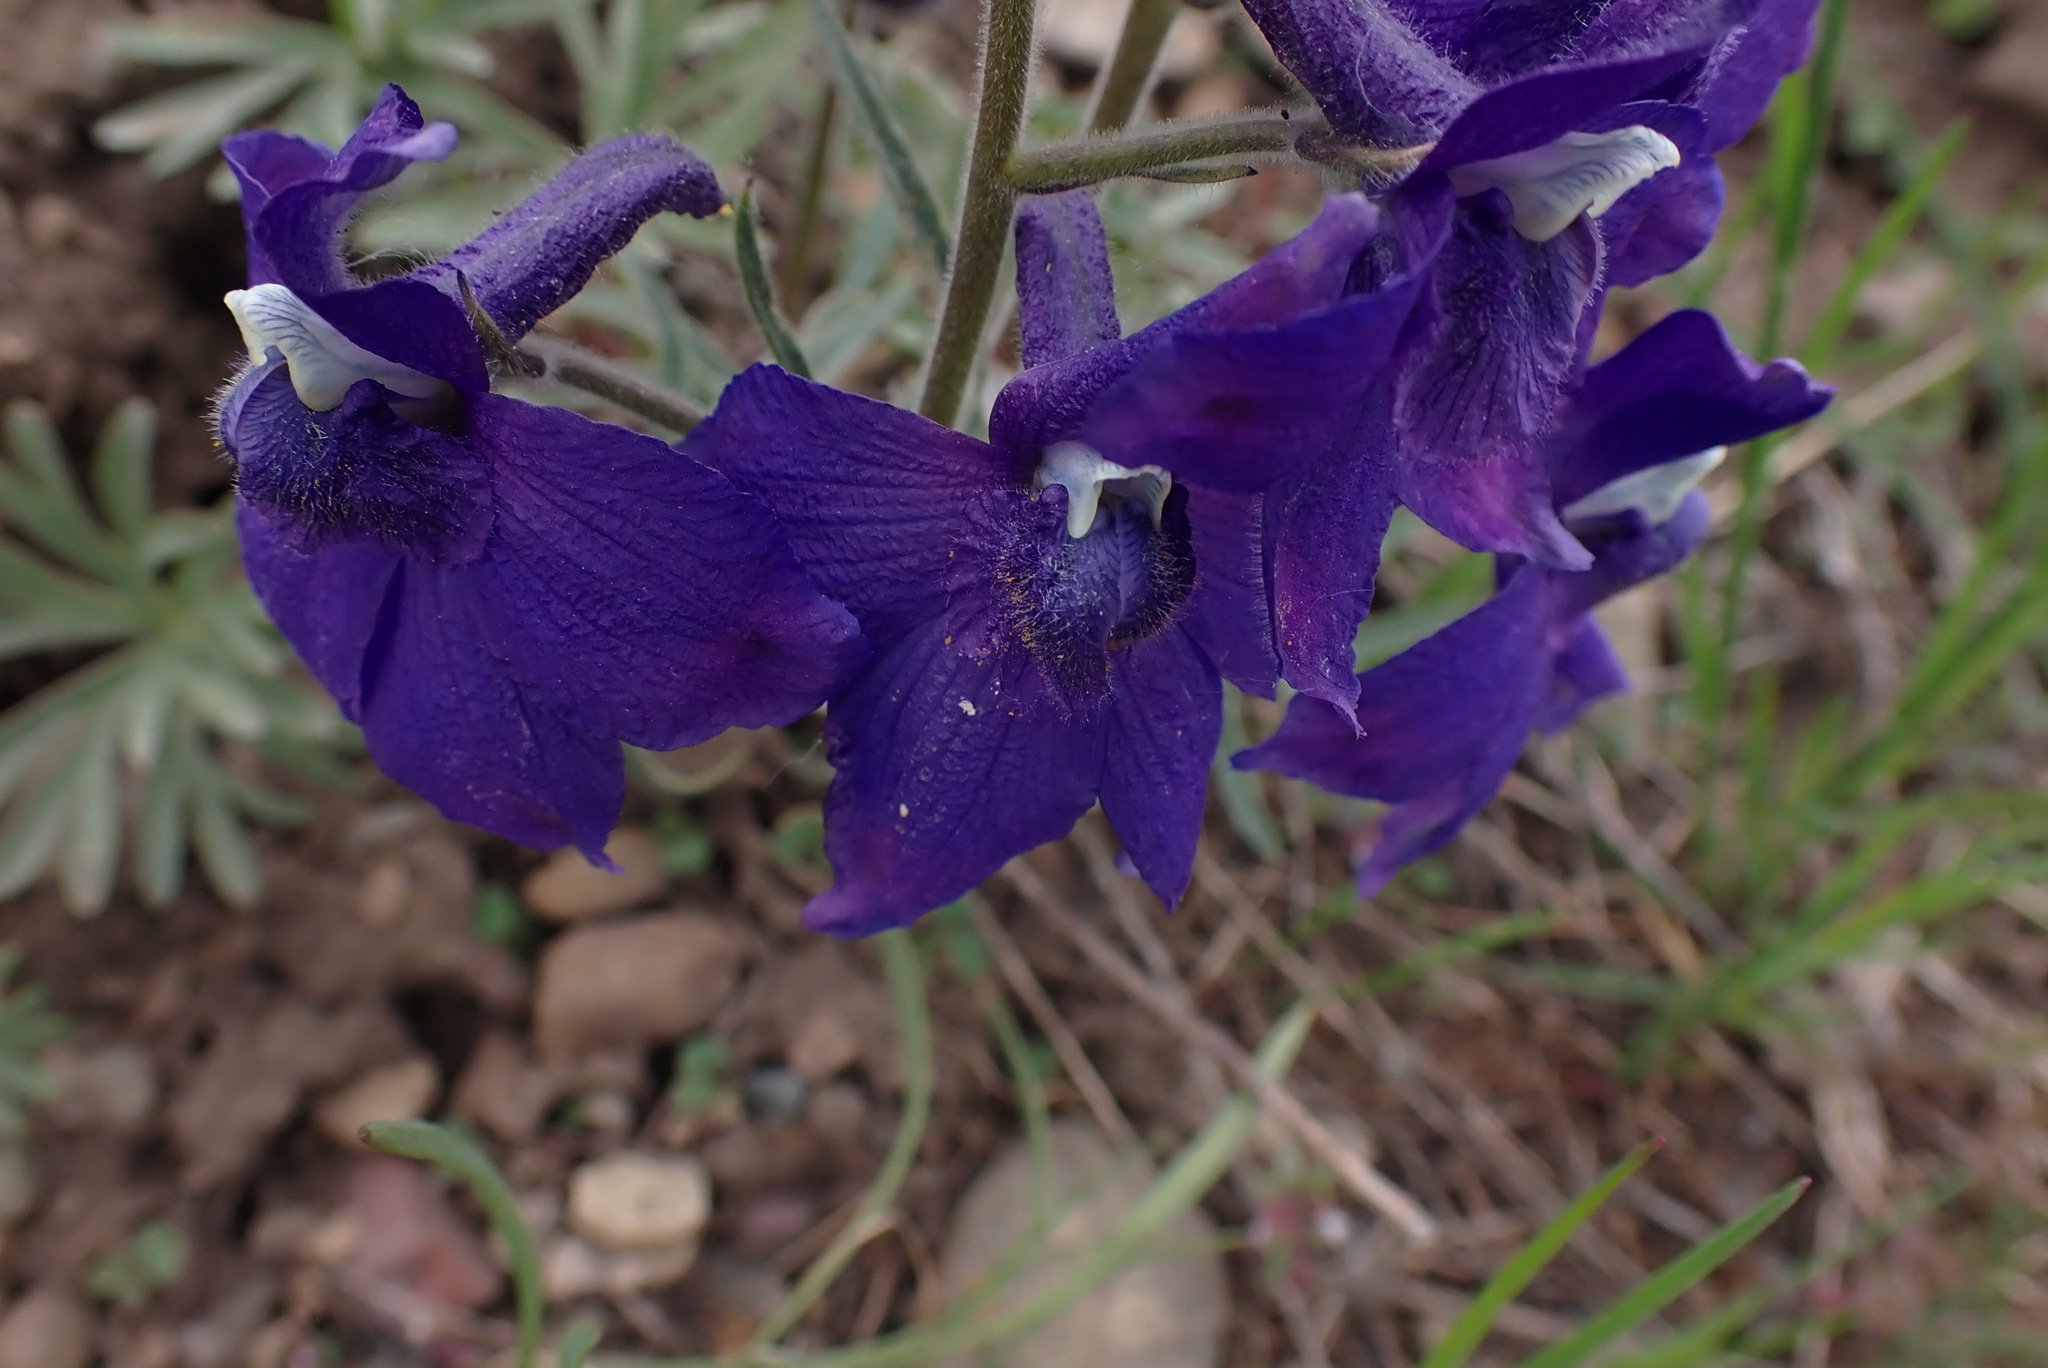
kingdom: Plantae
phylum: Tracheophyta
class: Magnoliopsida
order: Ranunculales
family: Ranunculaceae
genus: Delphinium
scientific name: Delphinium bicolor
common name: Low larkspur
